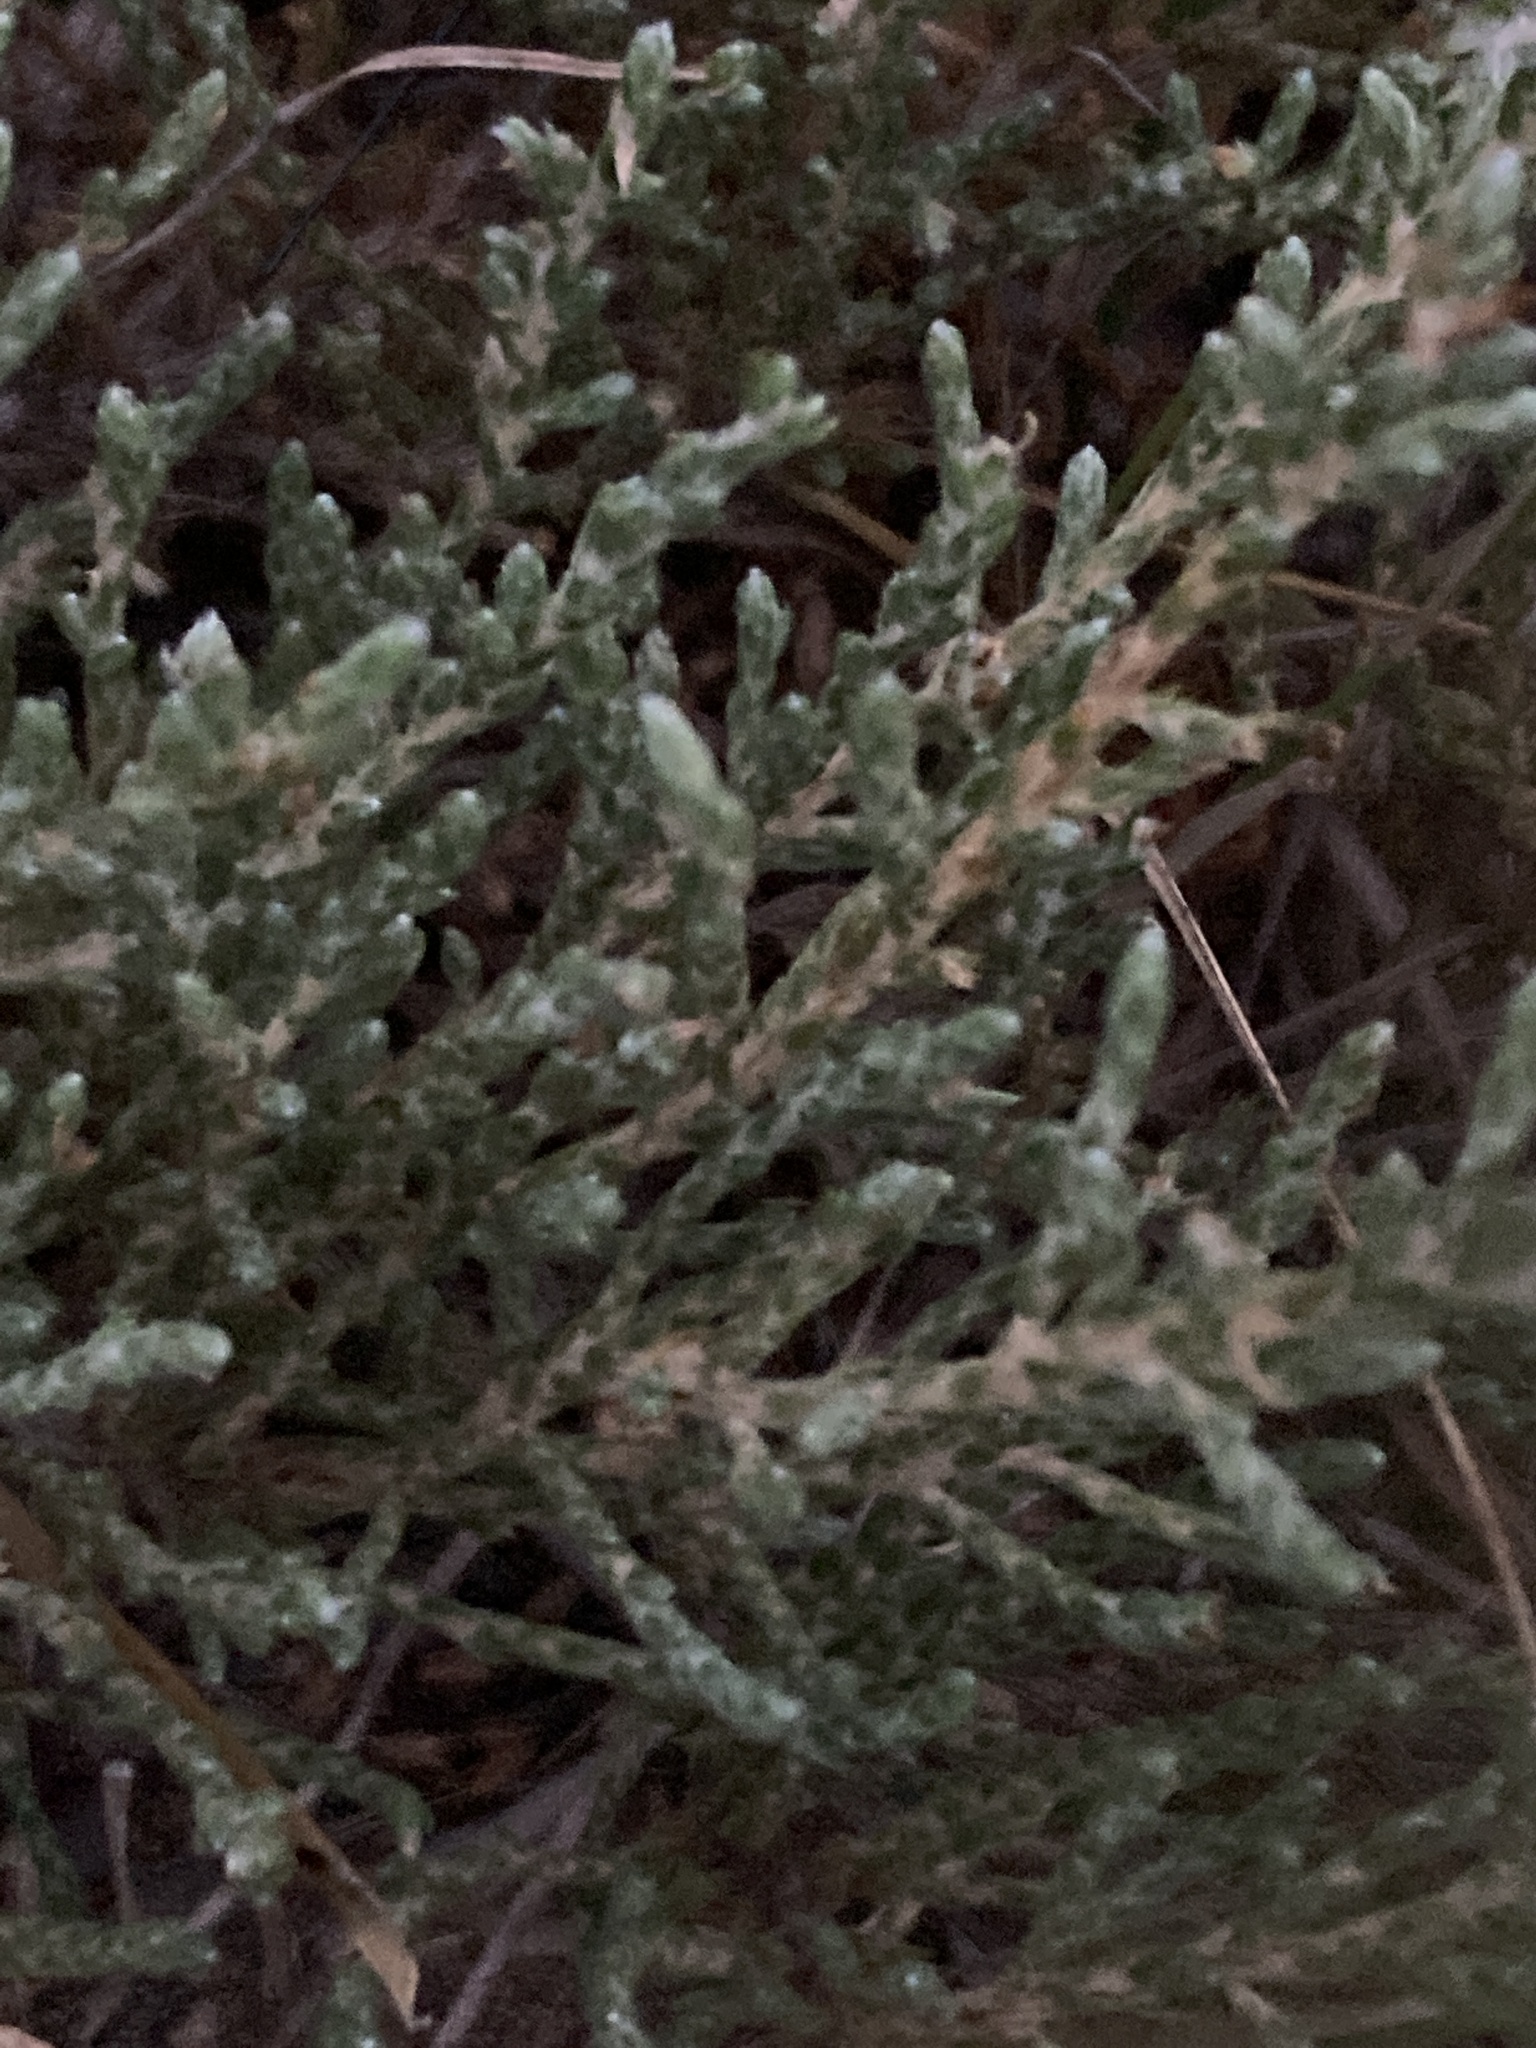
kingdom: Plantae
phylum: Tracheophyta
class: Magnoliopsida
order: Malvales
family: Cistaceae
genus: Hudsonia
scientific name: Hudsonia tomentosa
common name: Beach-heath
